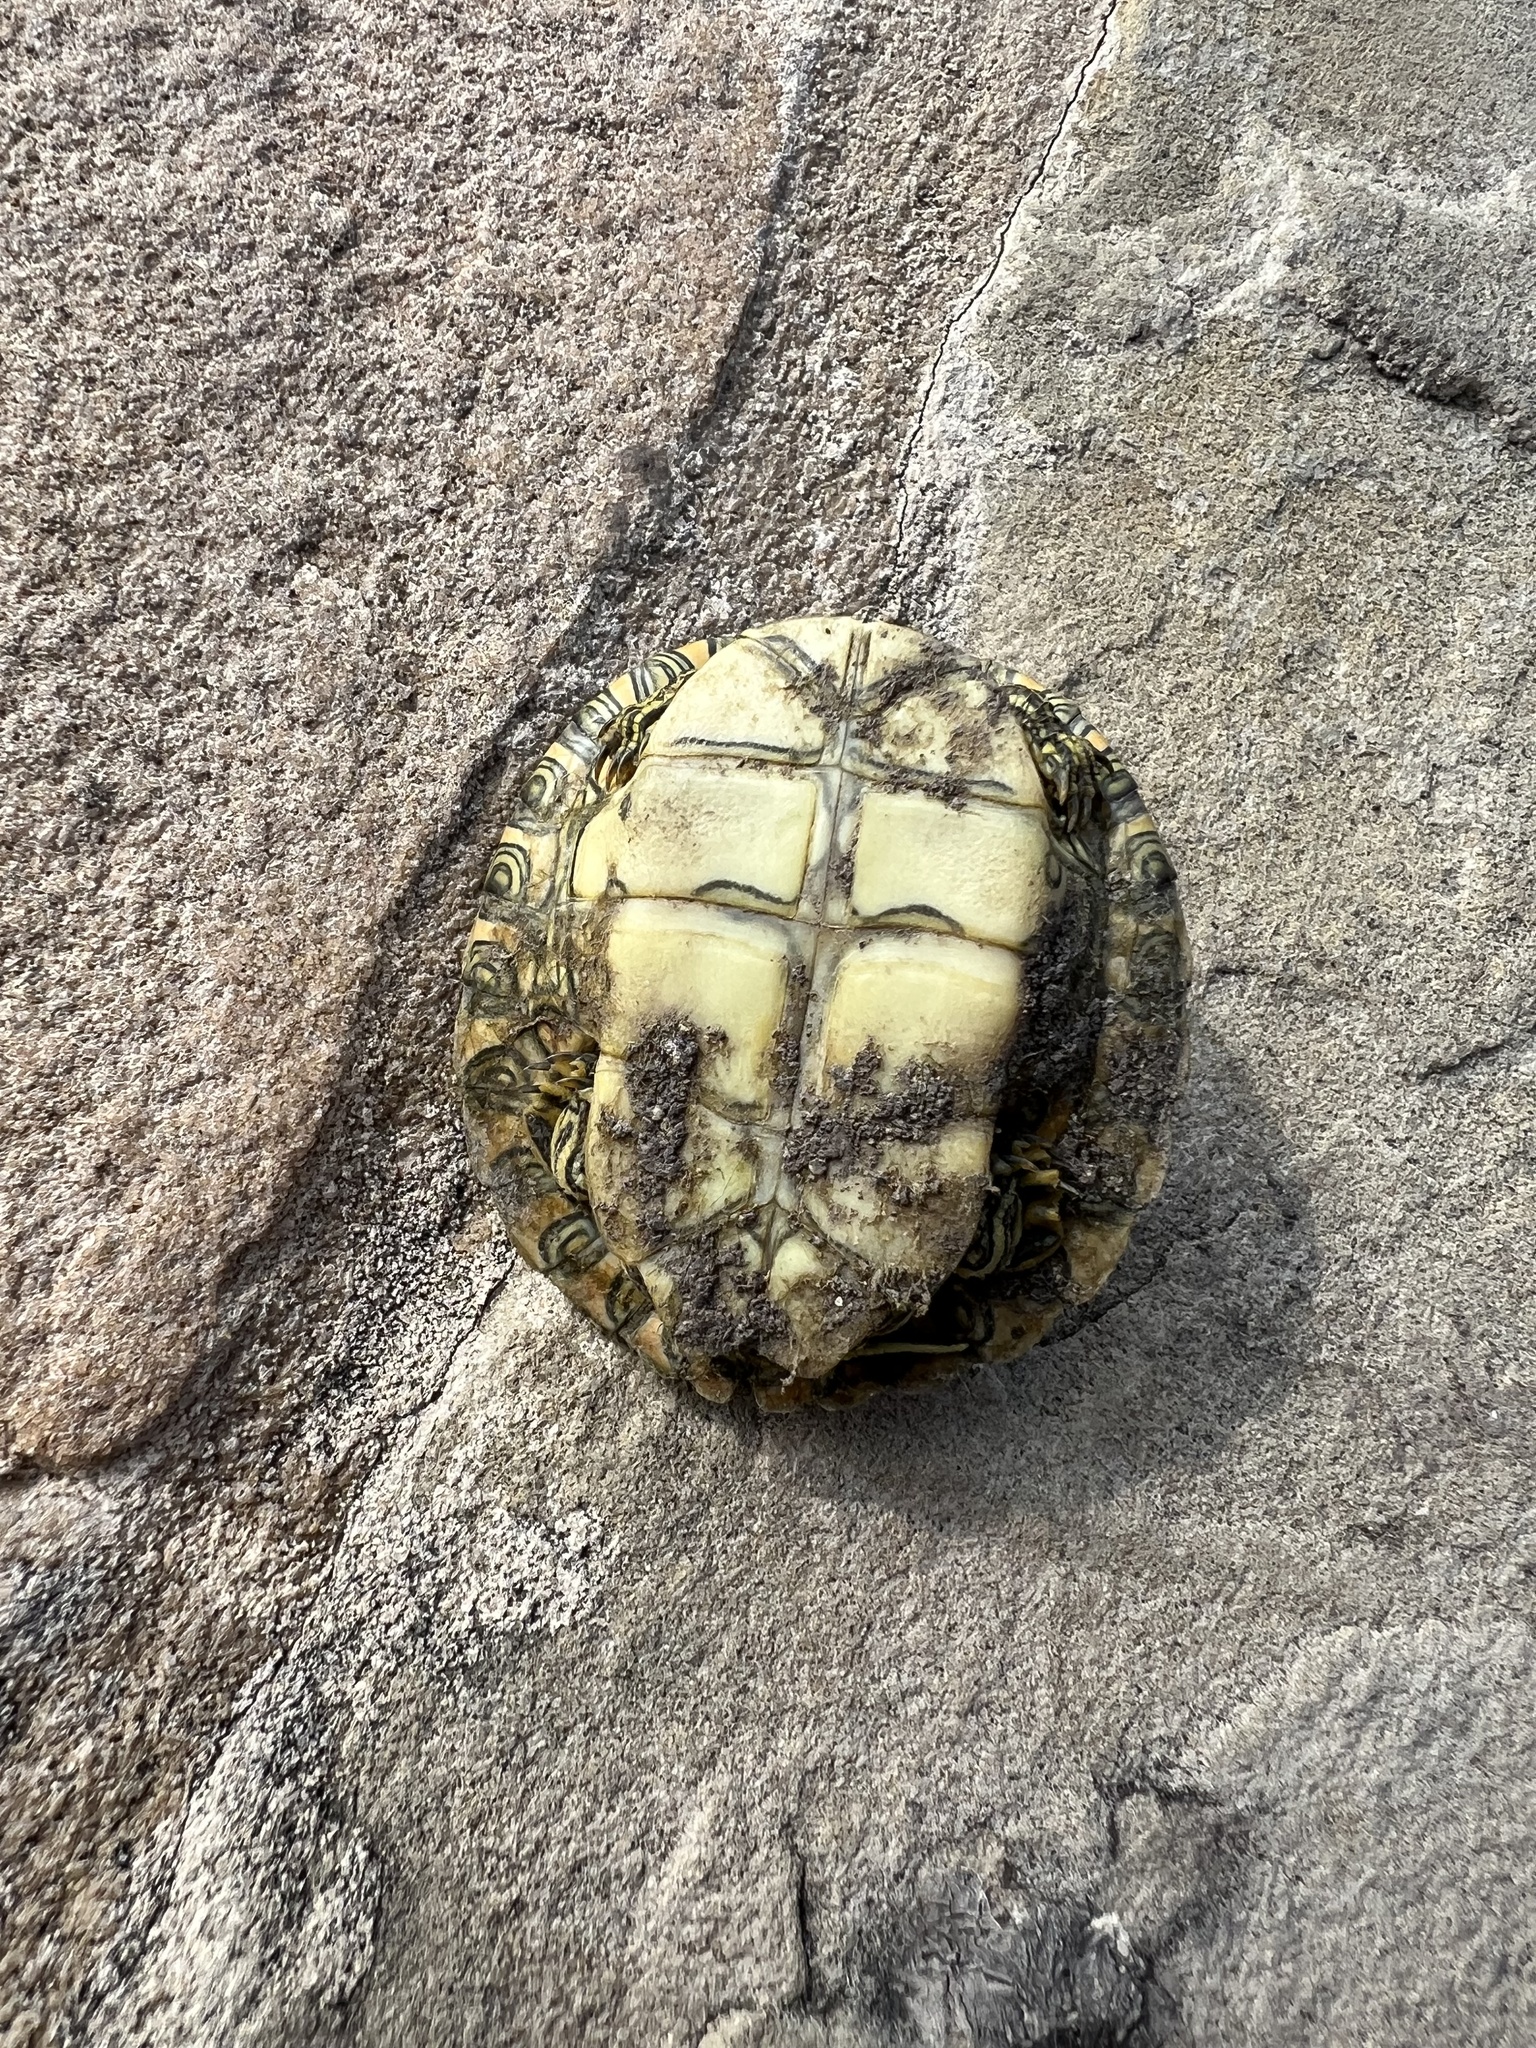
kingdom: Animalia
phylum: Chordata
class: Testudines
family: Emydidae
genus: Pseudemys
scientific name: Pseudemys texana
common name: Texas river cooter
